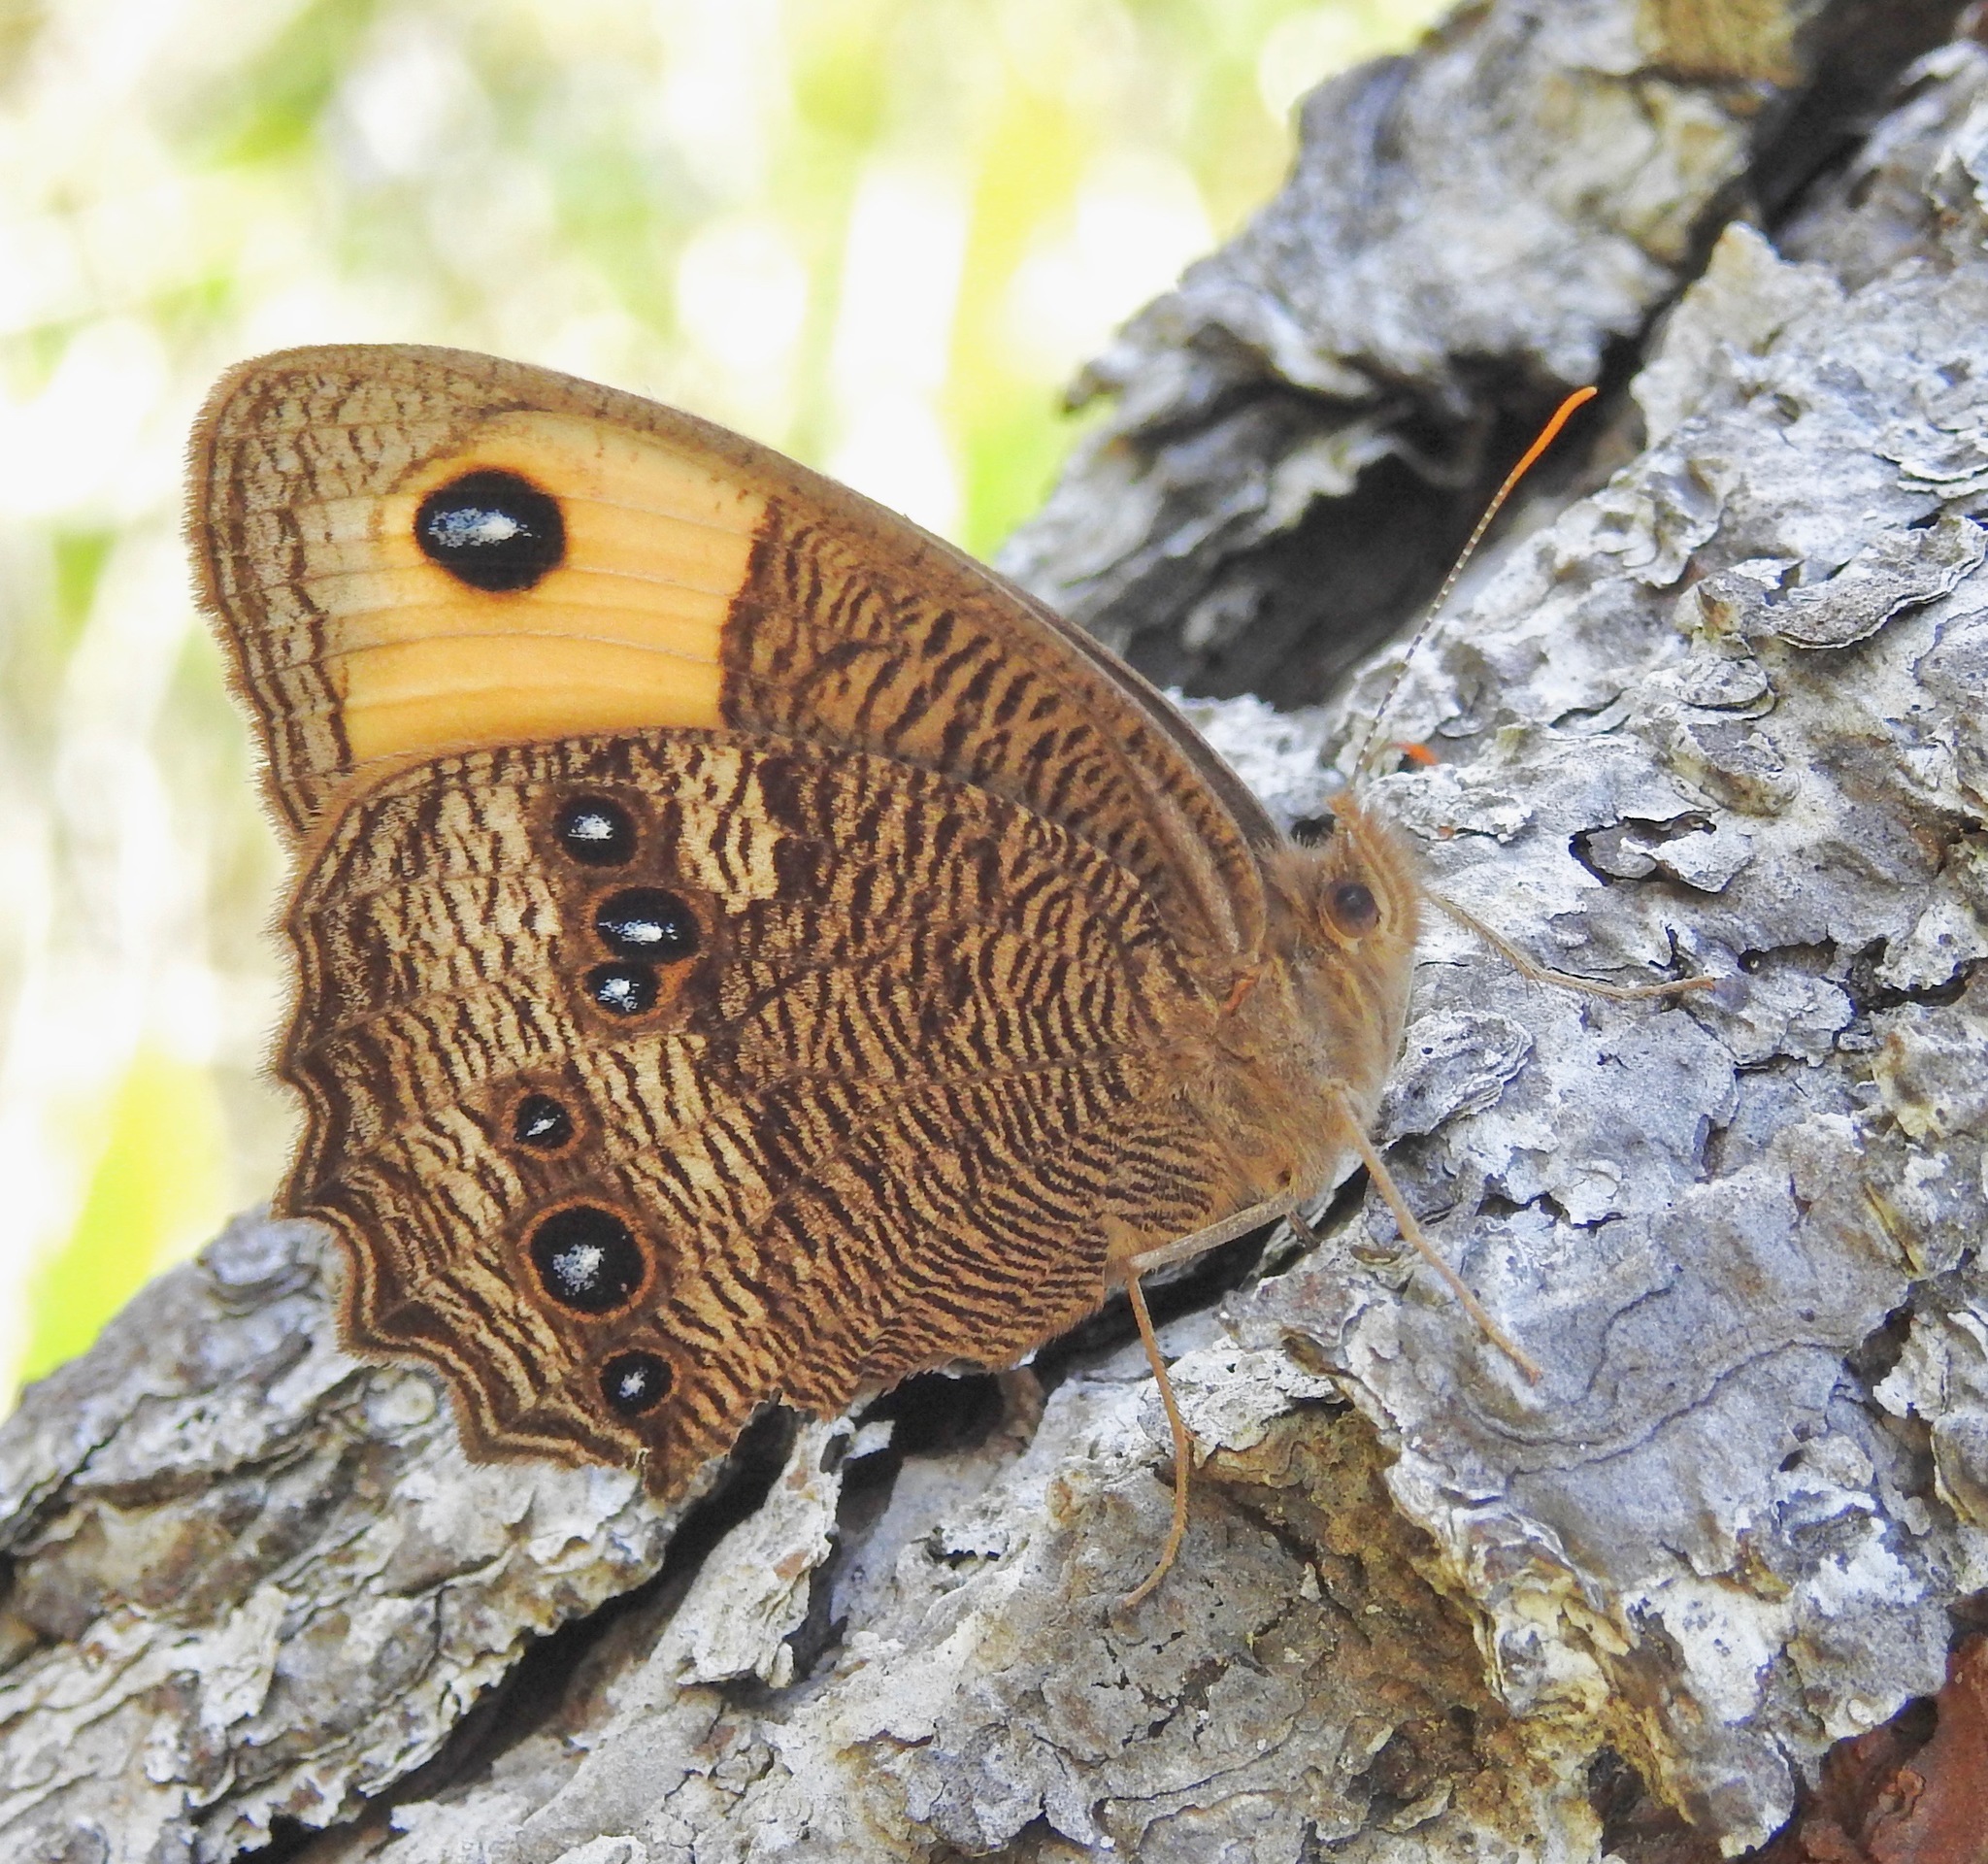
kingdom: Animalia
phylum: Arthropoda
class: Insecta
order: Lepidoptera
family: Nymphalidae
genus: Cercyonis
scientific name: Cercyonis pegala
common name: Common wood-nymph
